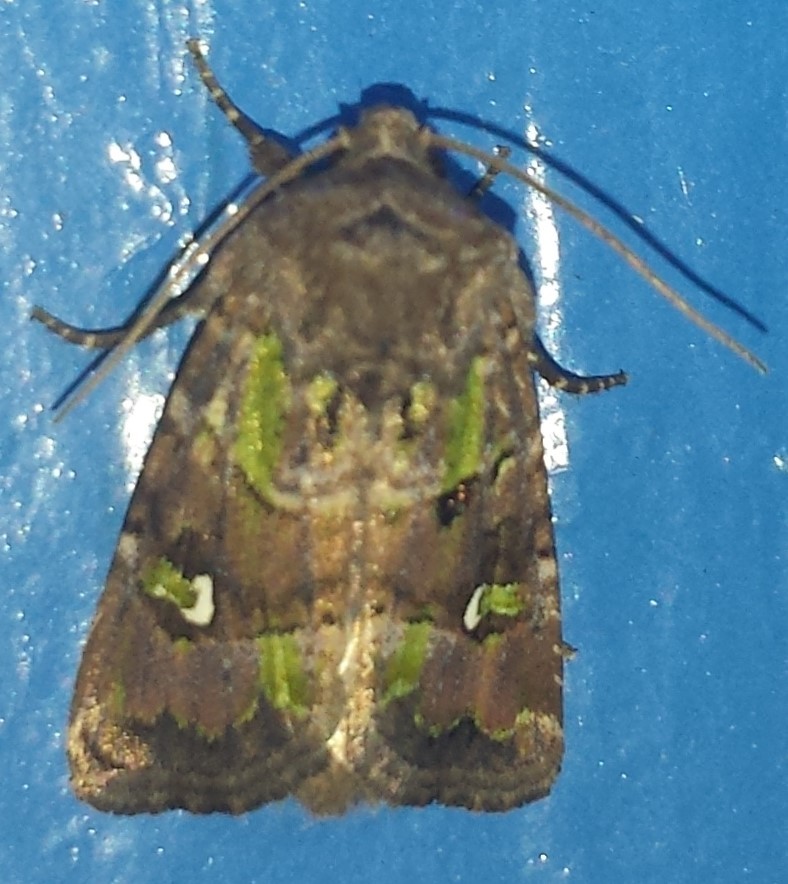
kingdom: Animalia
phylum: Arthropoda
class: Insecta
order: Lepidoptera
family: Noctuidae
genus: Lacinipolia
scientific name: Lacinipolia renigera
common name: Kidney-spotted minor
